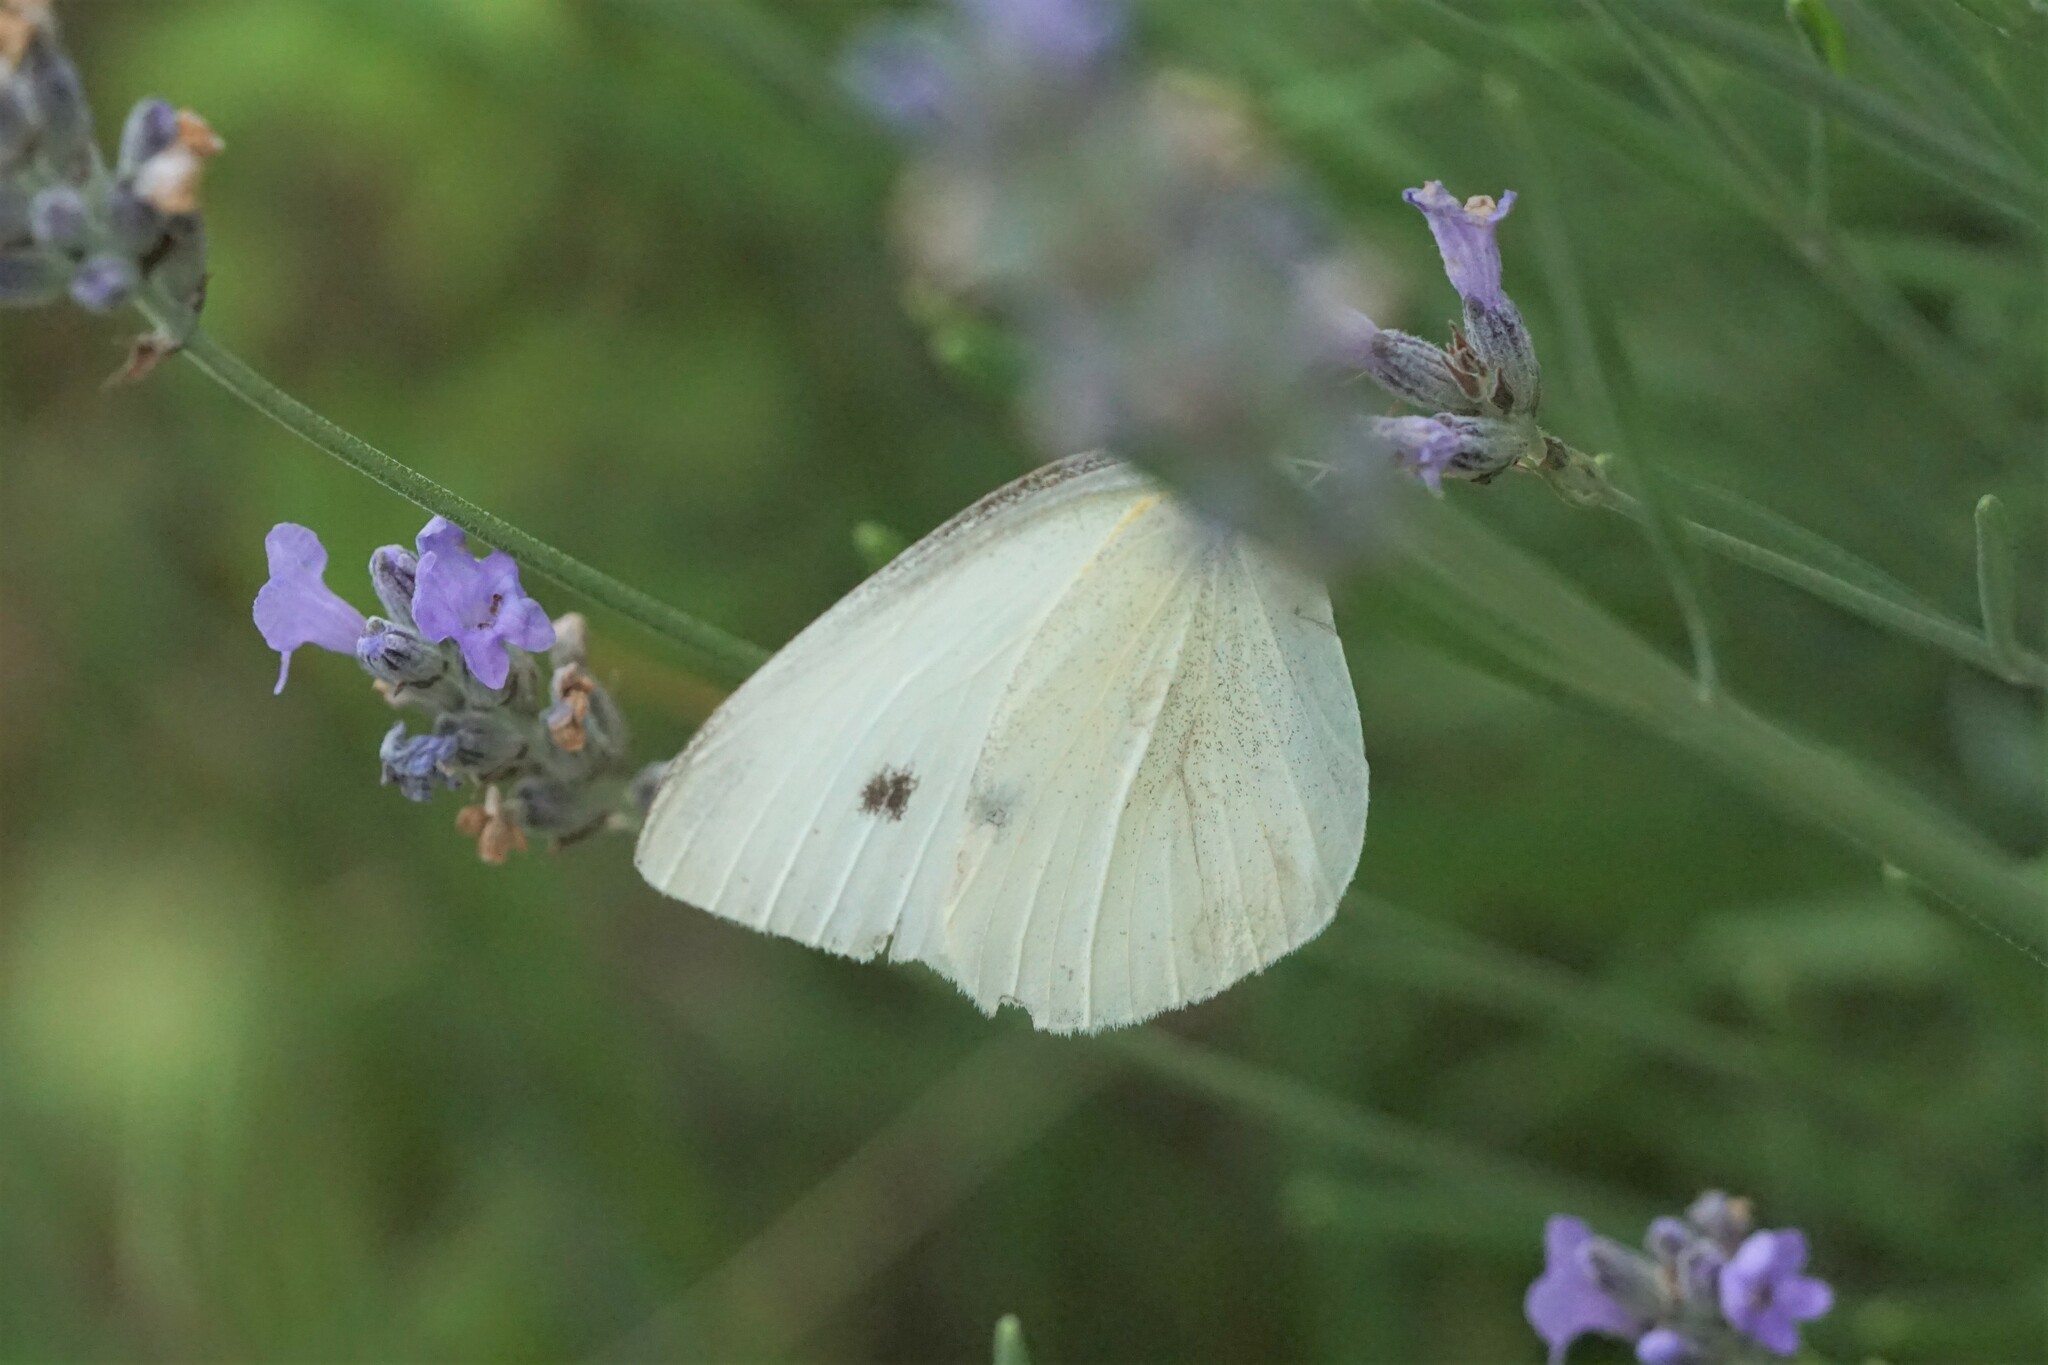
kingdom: Animalia
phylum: Arthropoda
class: Insecta
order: Lepidoptera
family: Pieridae
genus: Pieris
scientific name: Pieris rapae
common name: Small white
